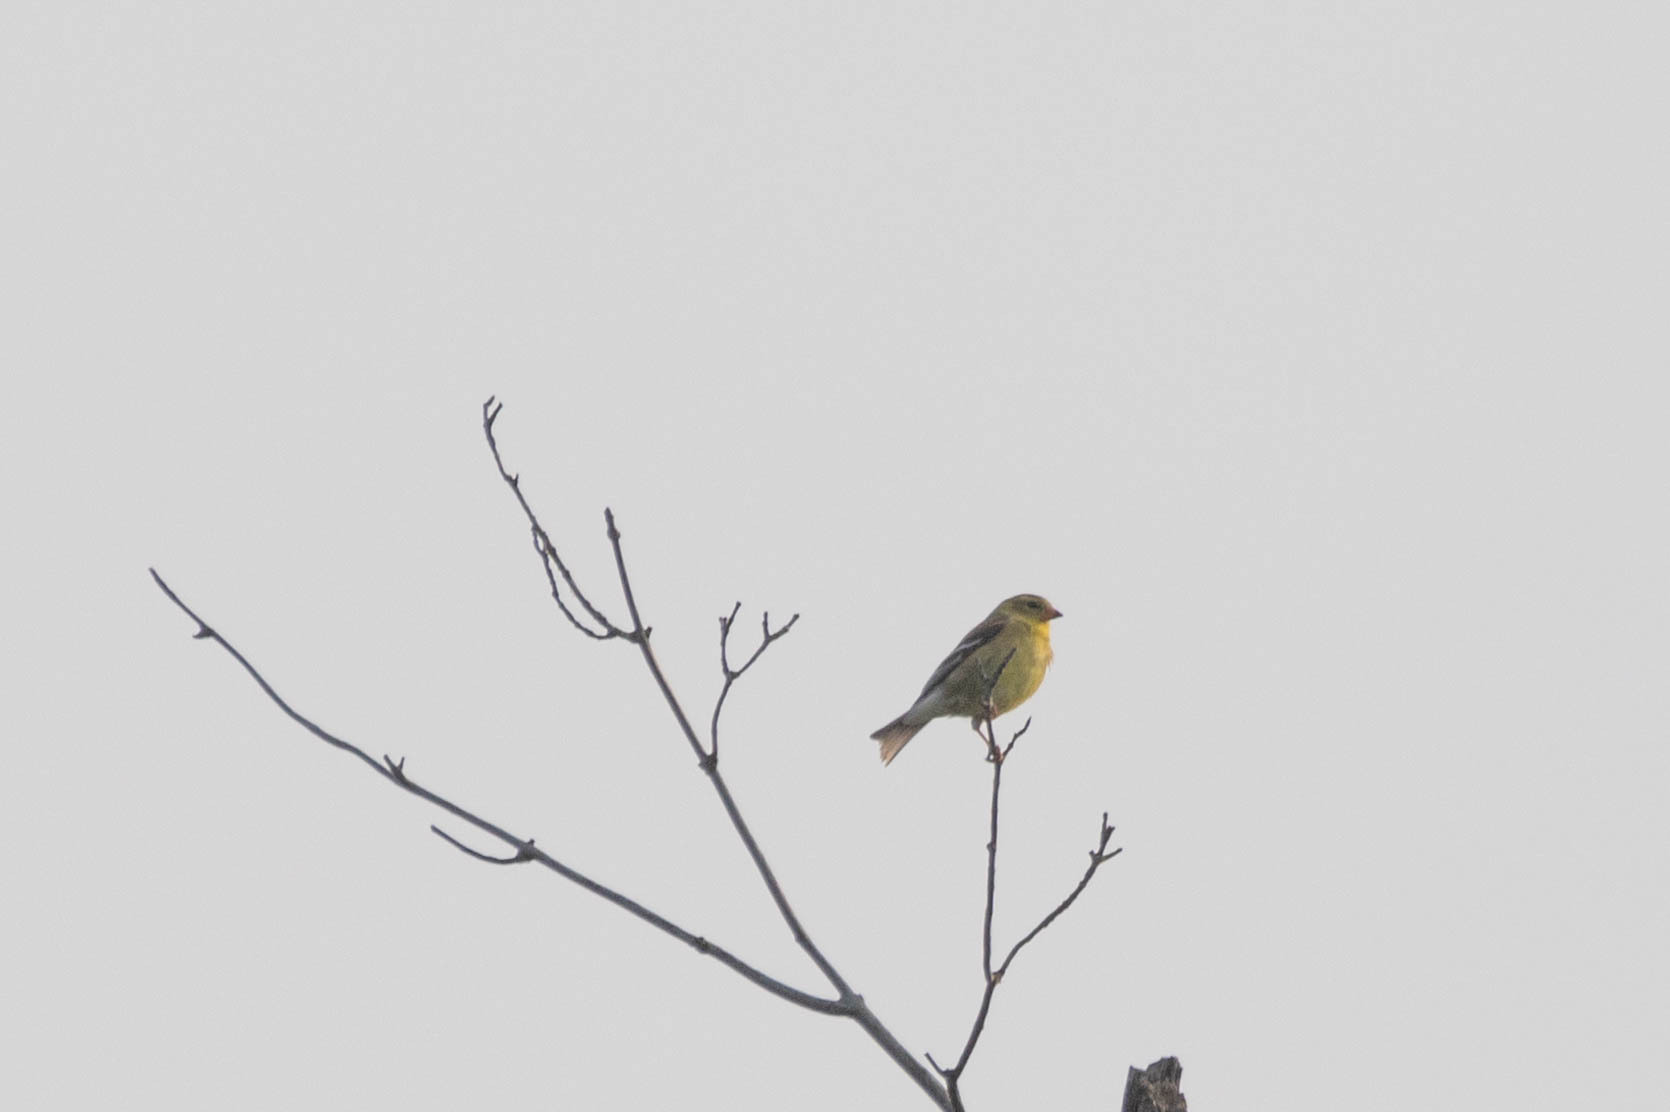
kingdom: Animalia
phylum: Chordata
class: Aves
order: Passeriformes
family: Fringillidae
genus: Spinus
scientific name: Spinus tristis
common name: American goldfinch
